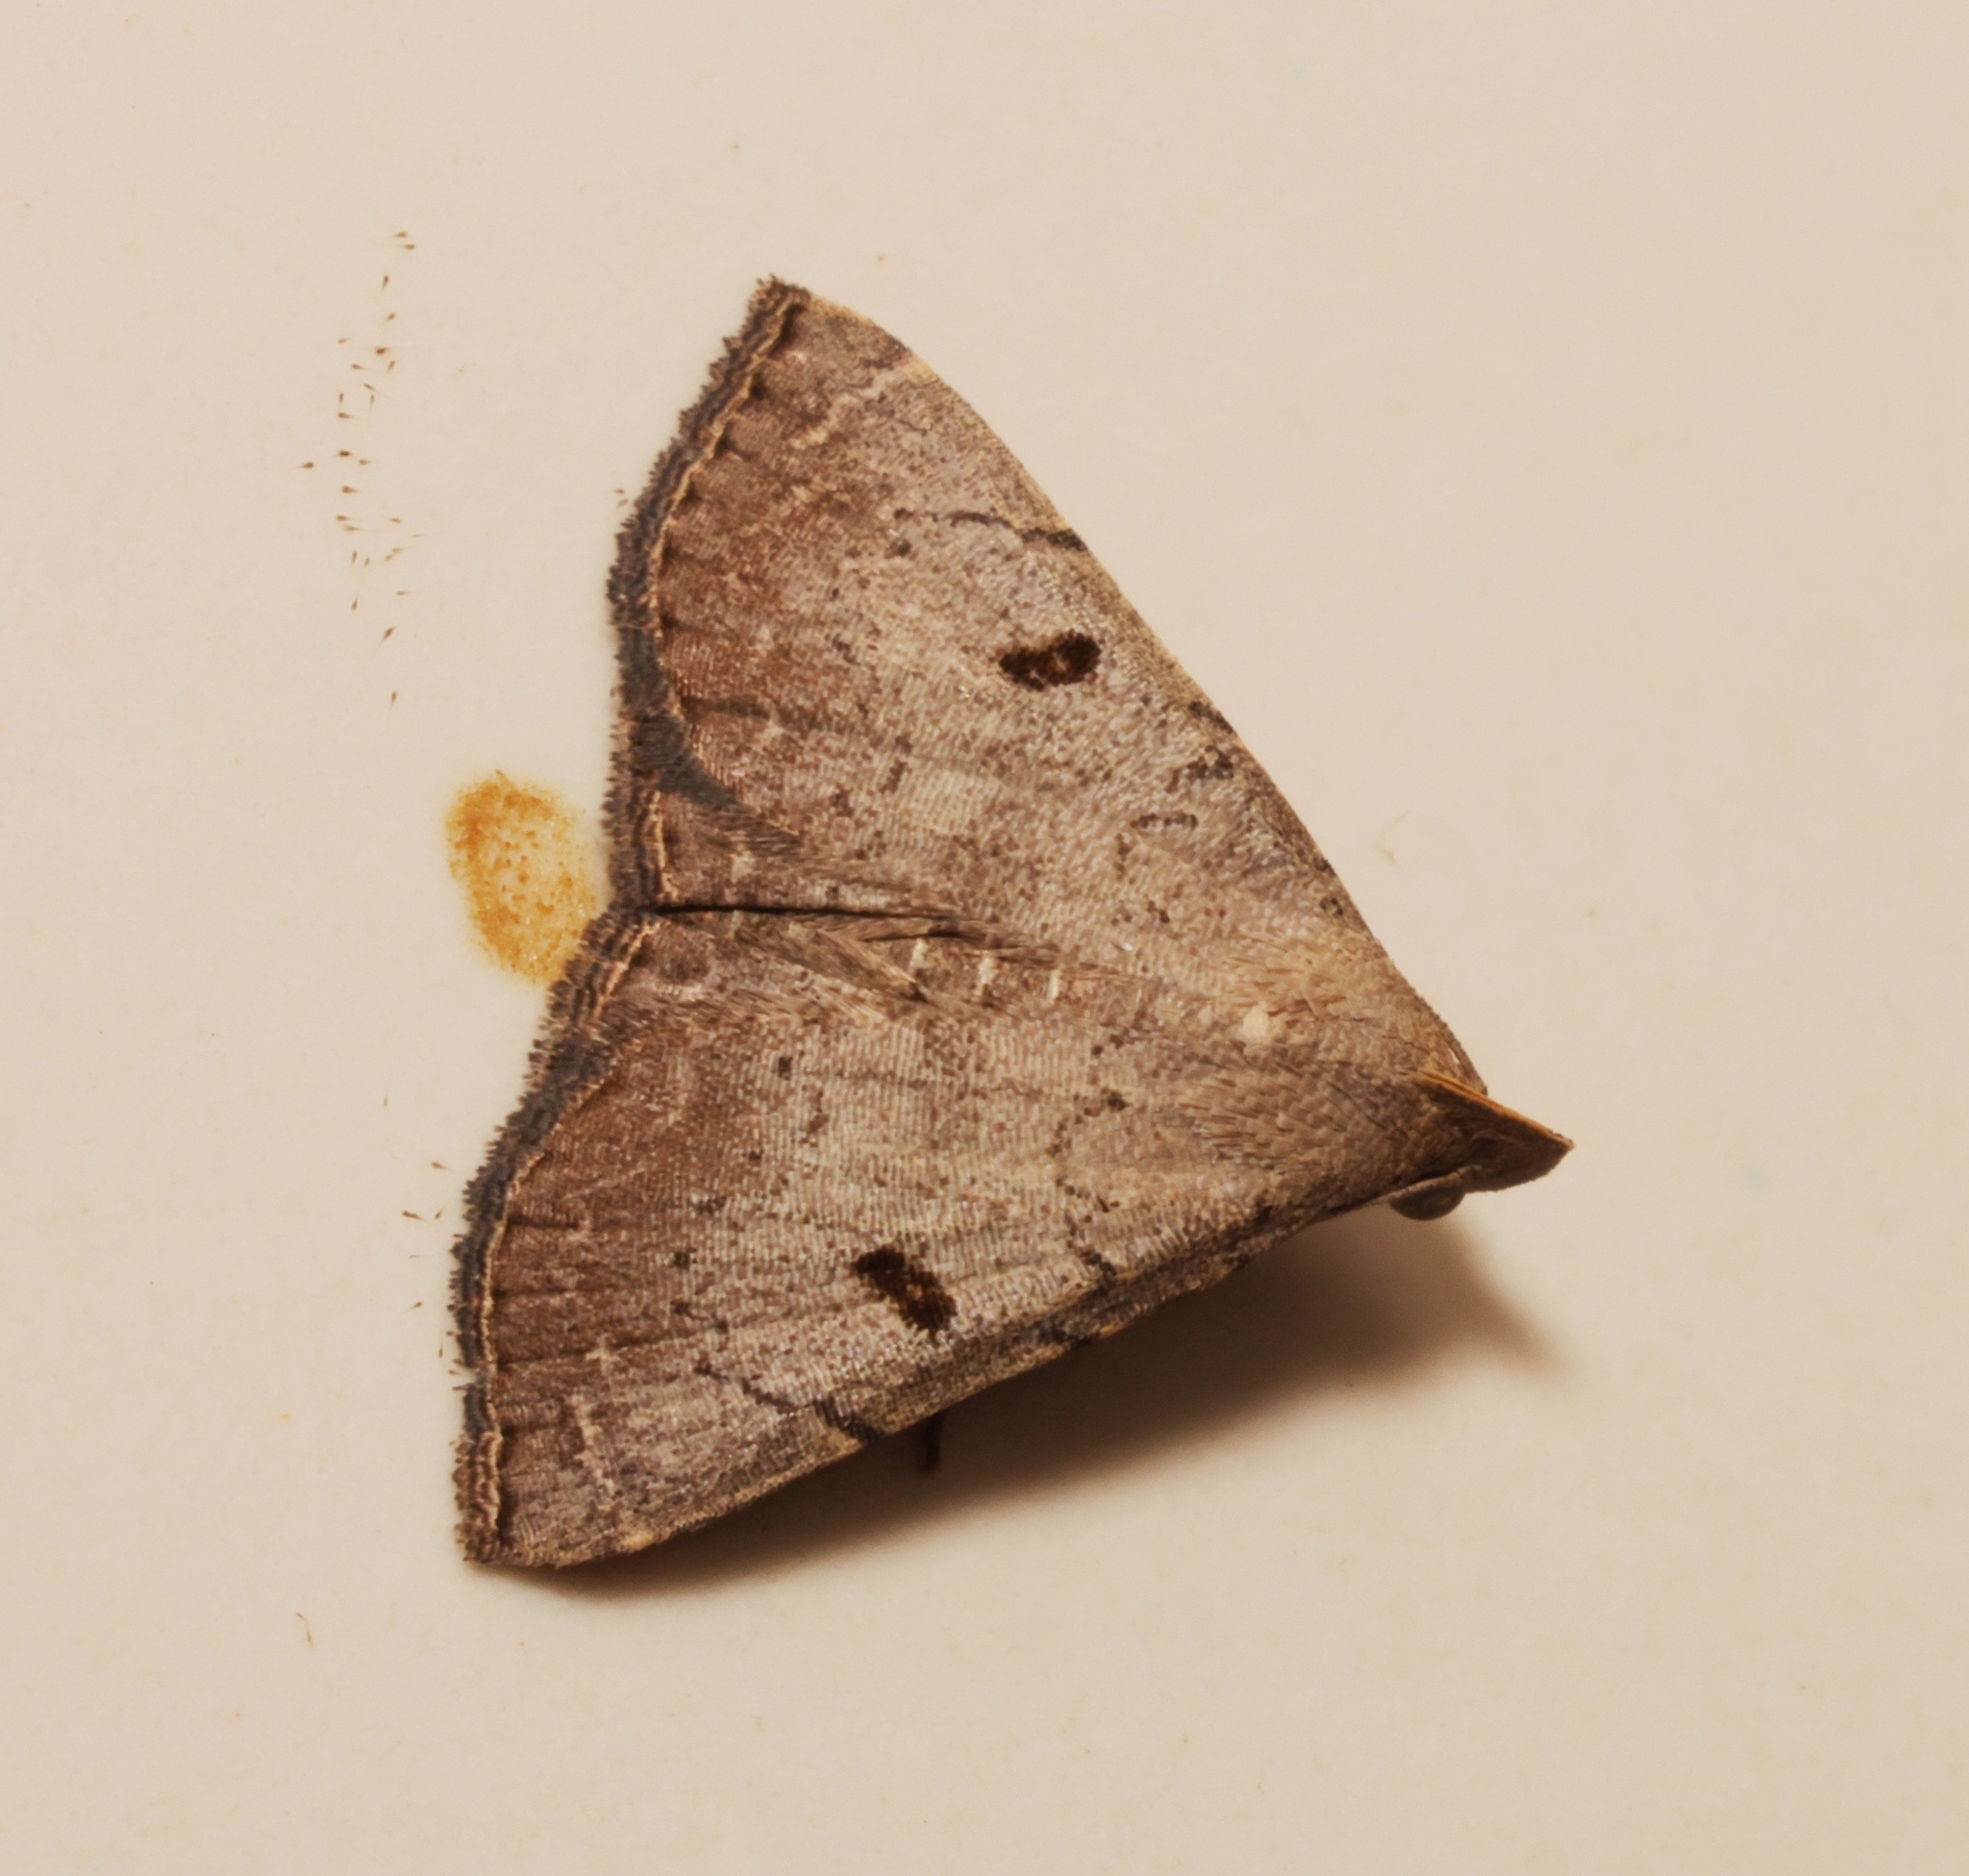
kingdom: Animalia
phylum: Arthropoda
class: Insecta
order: Lepidoptera
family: Erebidae
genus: Progonia
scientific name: Progonia oileusalis
